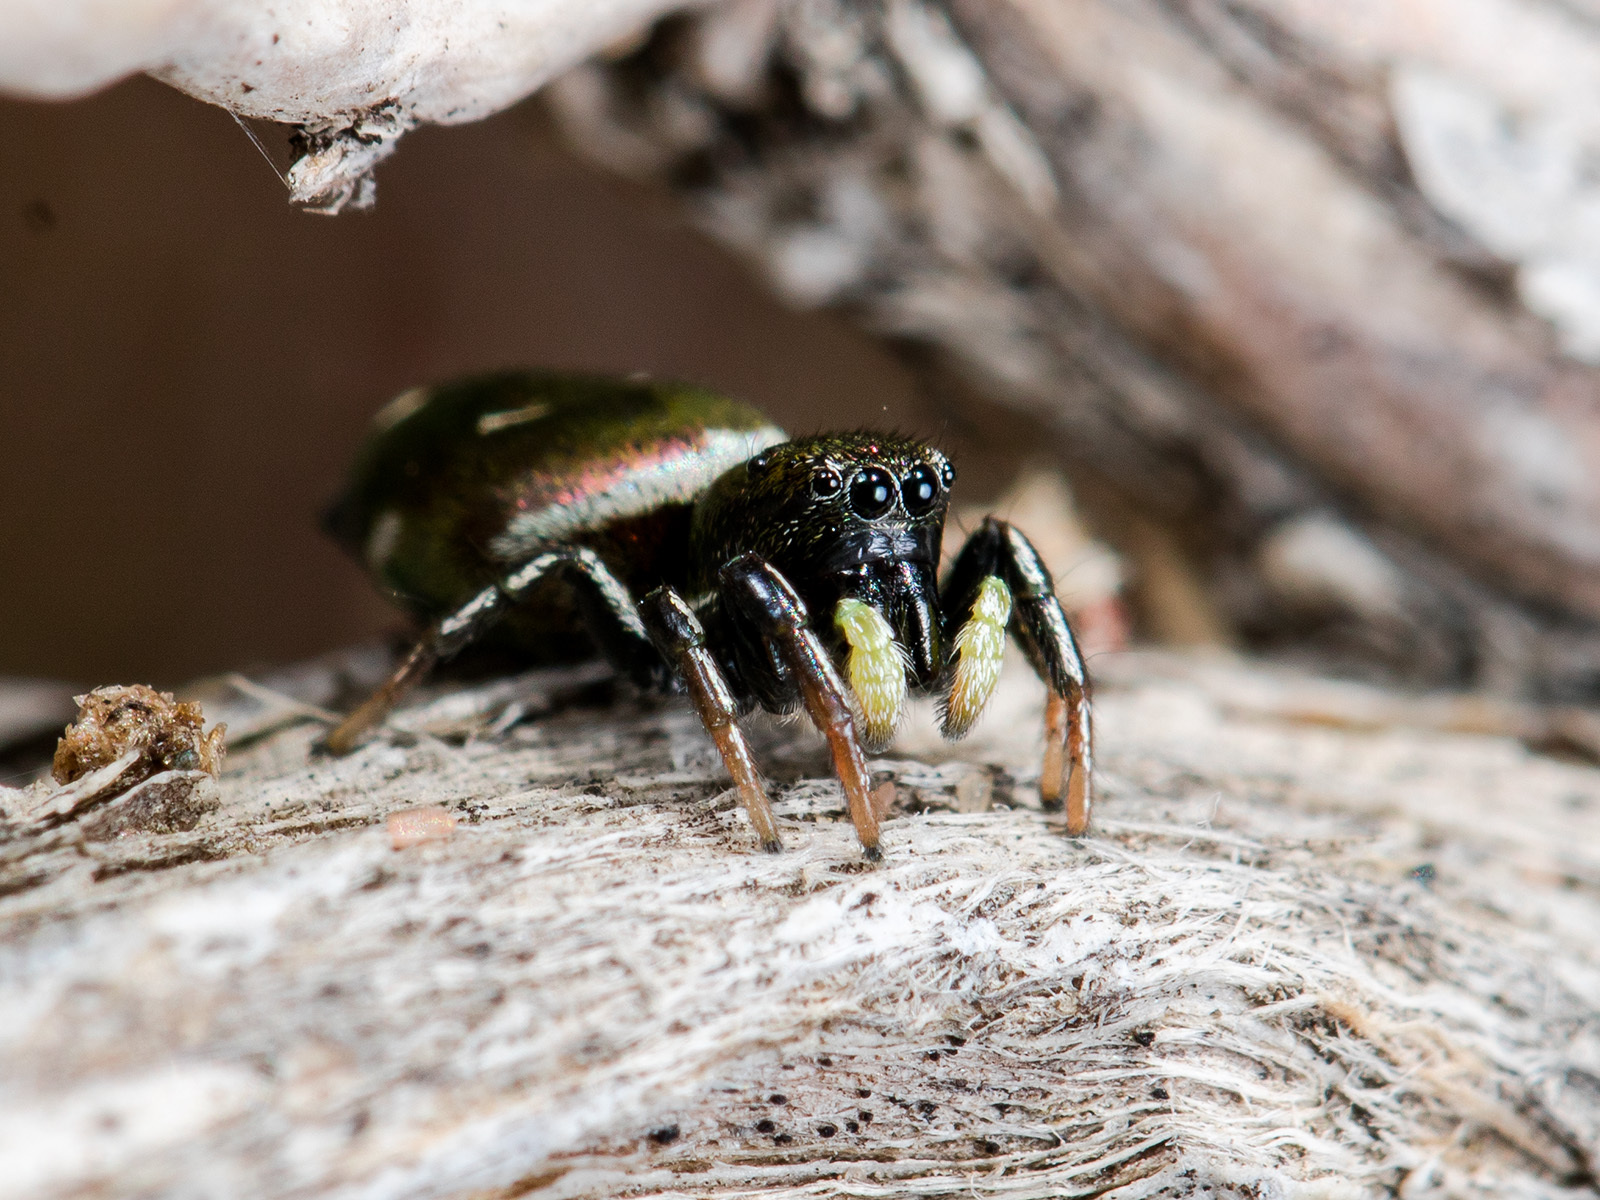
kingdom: Animalia
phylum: Arthropoda
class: Arachnida
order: Araneae
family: Salticidae
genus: Heliophanus
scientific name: Heliophanus chovdensis
